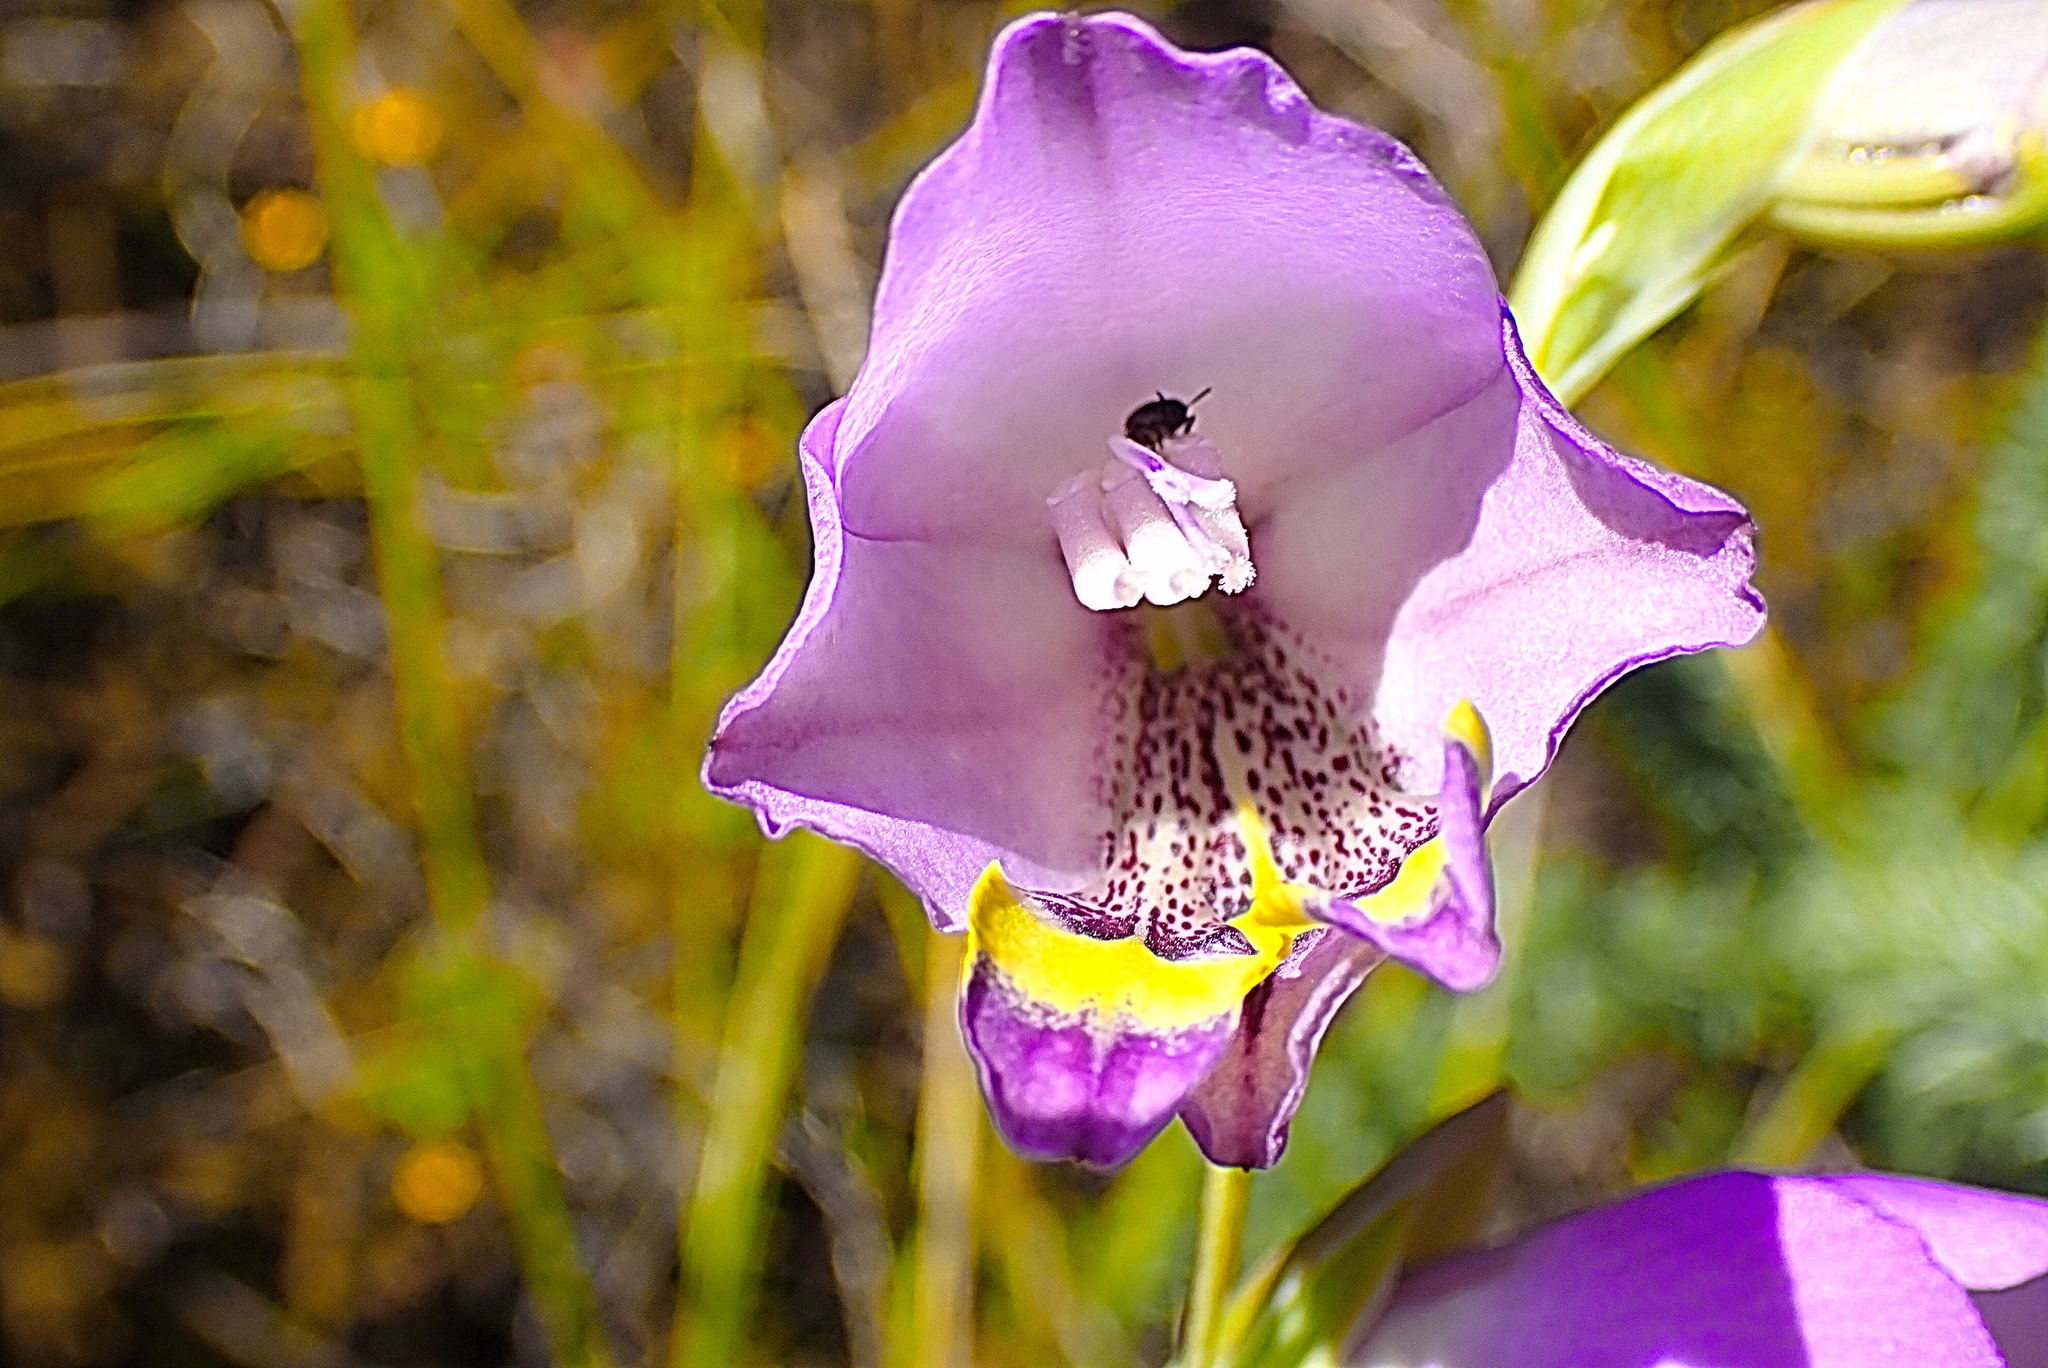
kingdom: Plantae
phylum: Tracheophyta
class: Liliopsida
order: Asparagales
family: Iridaceae
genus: Gladiolus
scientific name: Gladiolus rogersii
